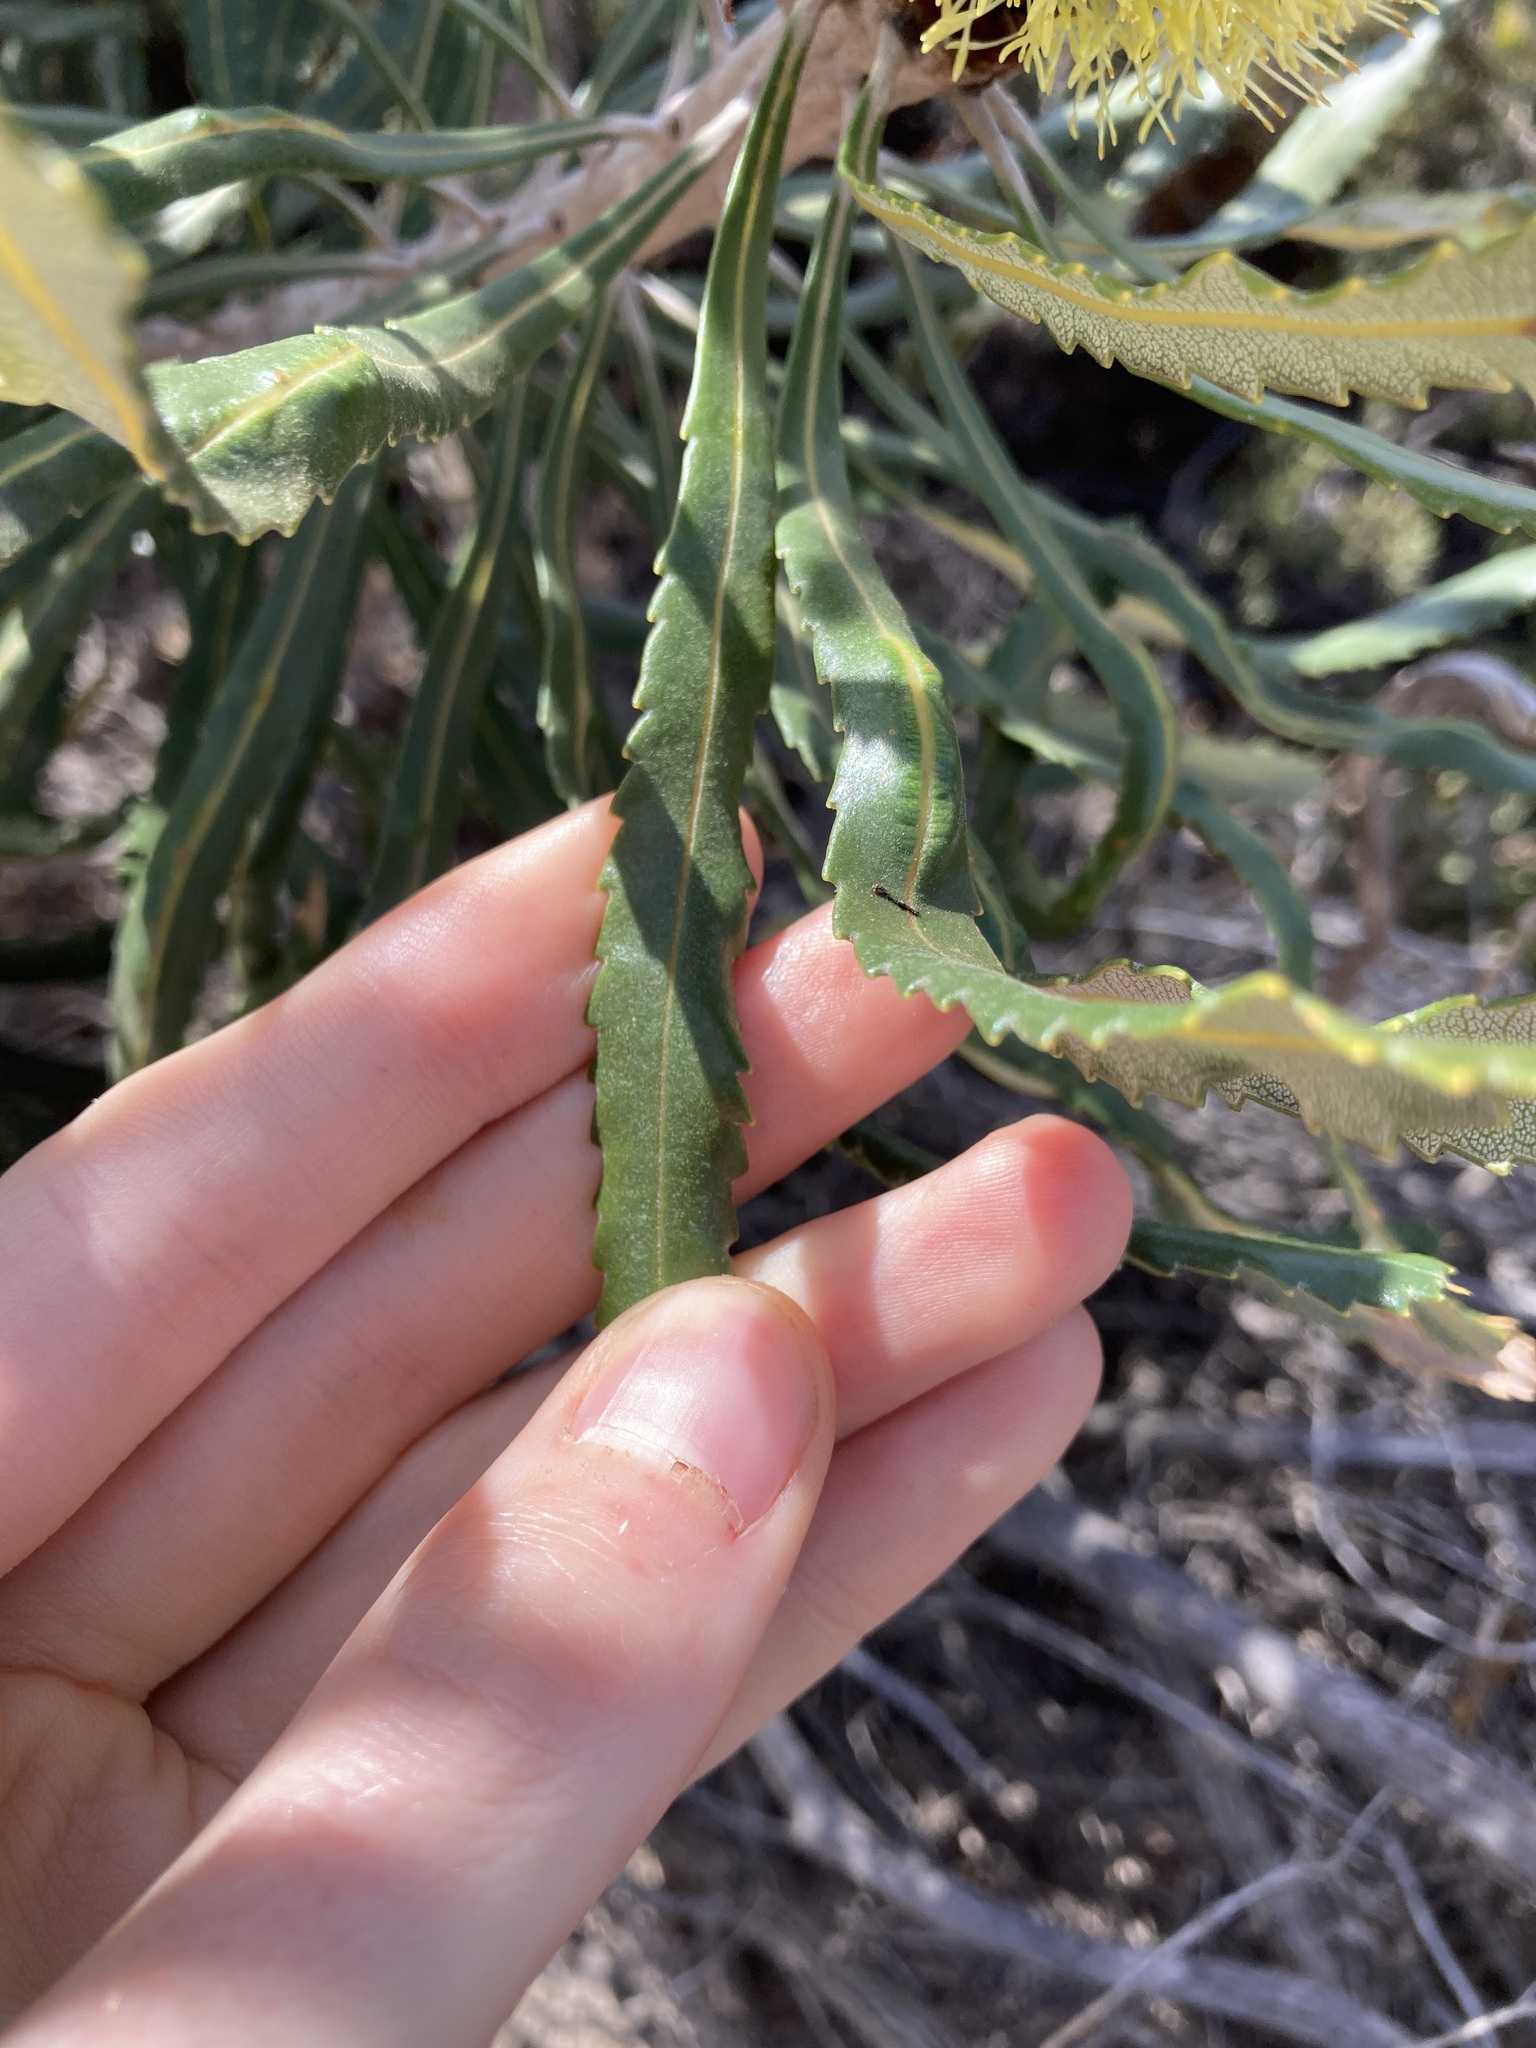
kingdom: Plantae
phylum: Tracheophyta
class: Magnoliopsida
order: Proteales
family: Proteaceae
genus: Banksia
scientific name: Banksia attenuata
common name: Coast banksia
